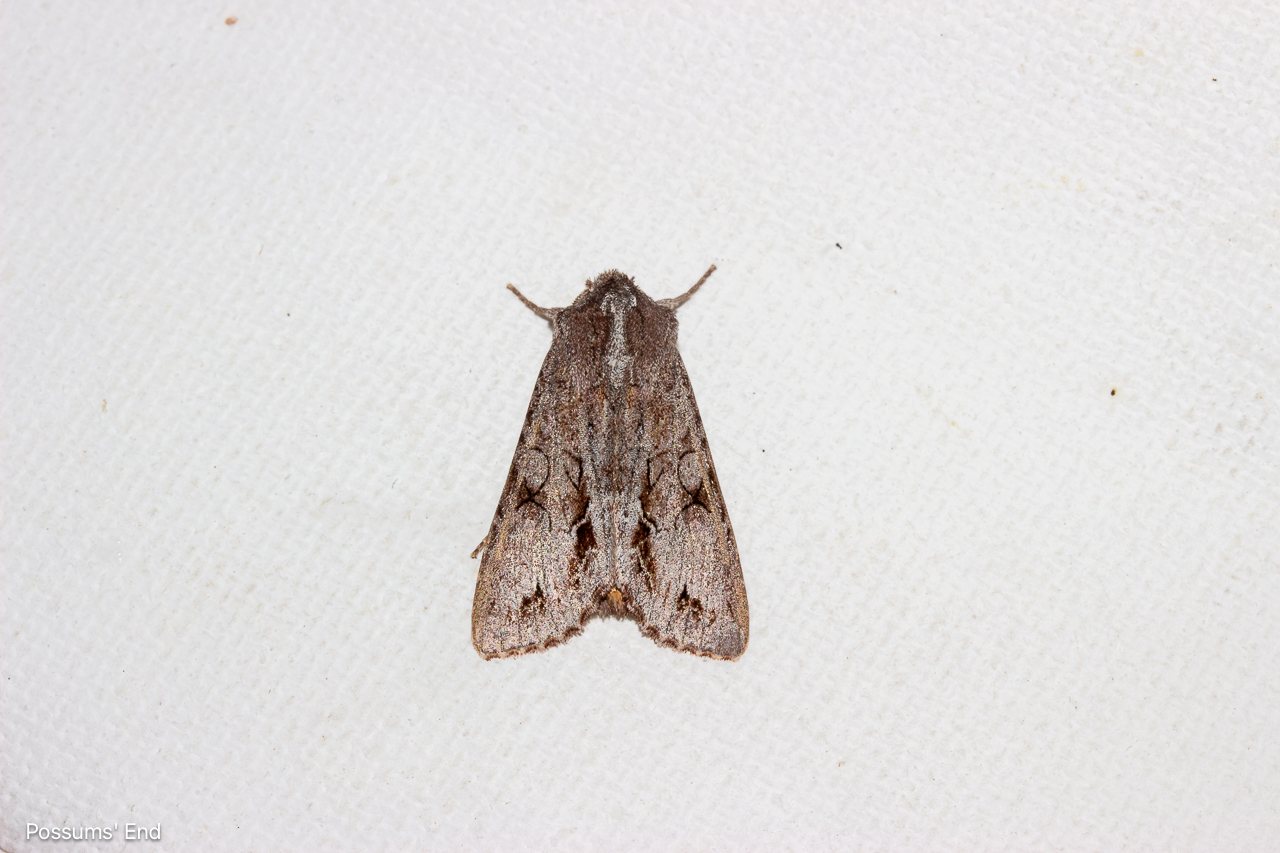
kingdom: Animalia
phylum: Arthropoda
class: Insecta
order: Lepidoptera
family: Noctuidae
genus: Ichneutica
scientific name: Ichneutica
